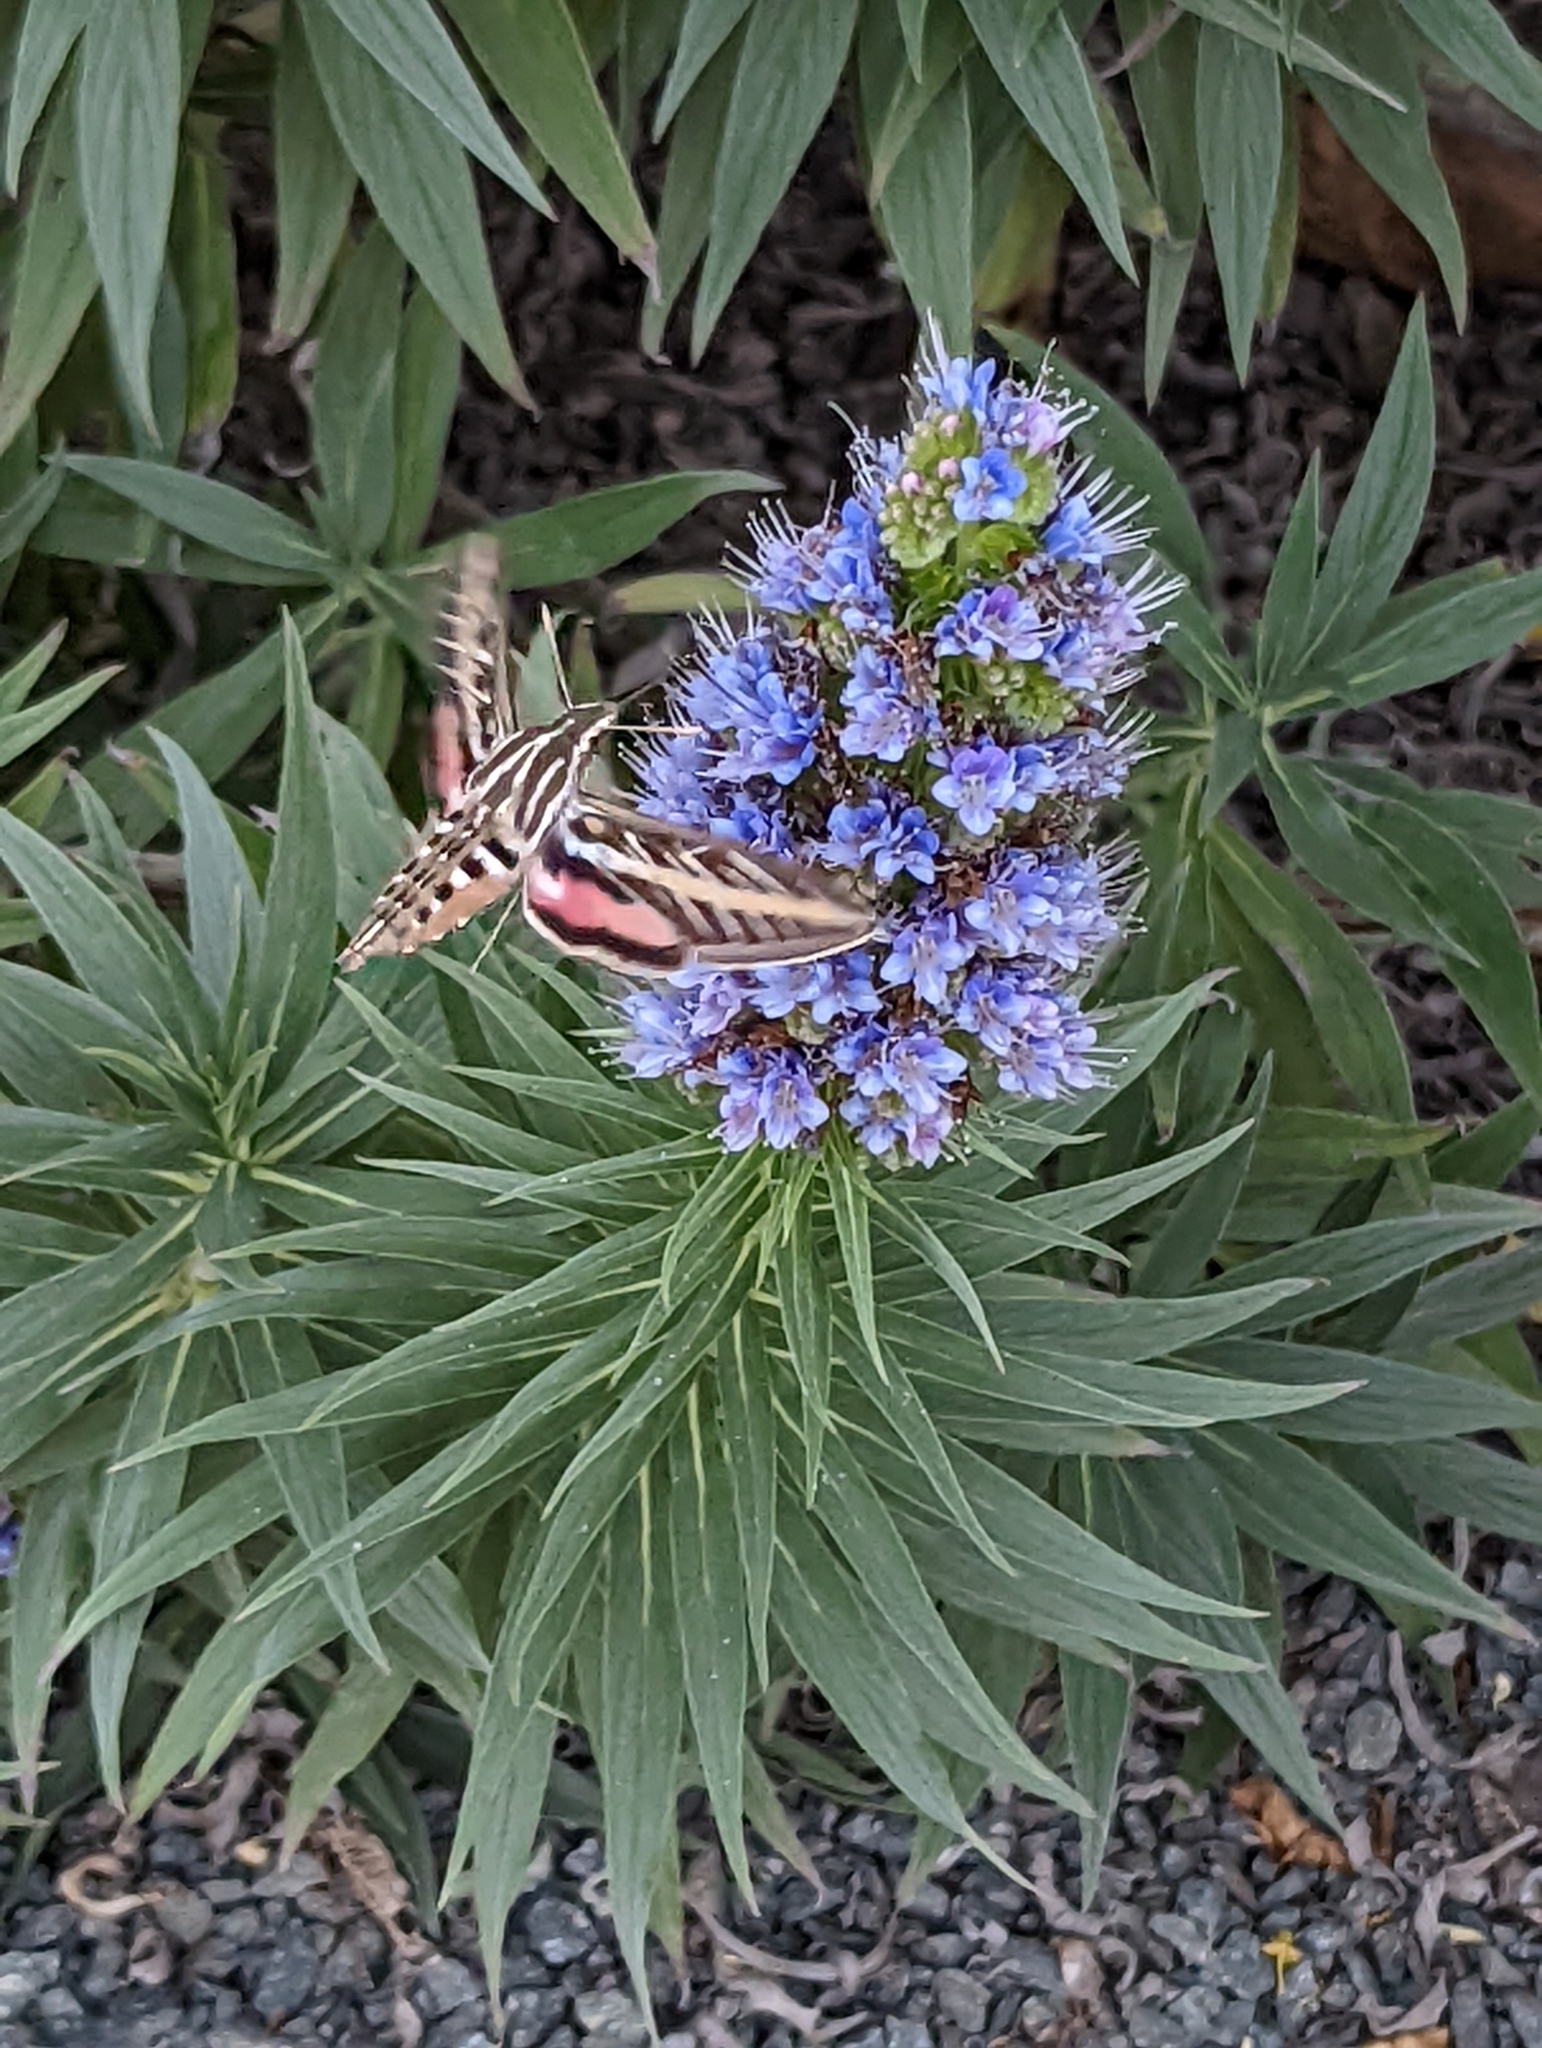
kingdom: Animalia
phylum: Arthropoda
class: Insecta
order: Lepidoptera
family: Sphingidae
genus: Hyles
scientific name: Hyles lineata
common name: White-lined sphinx
